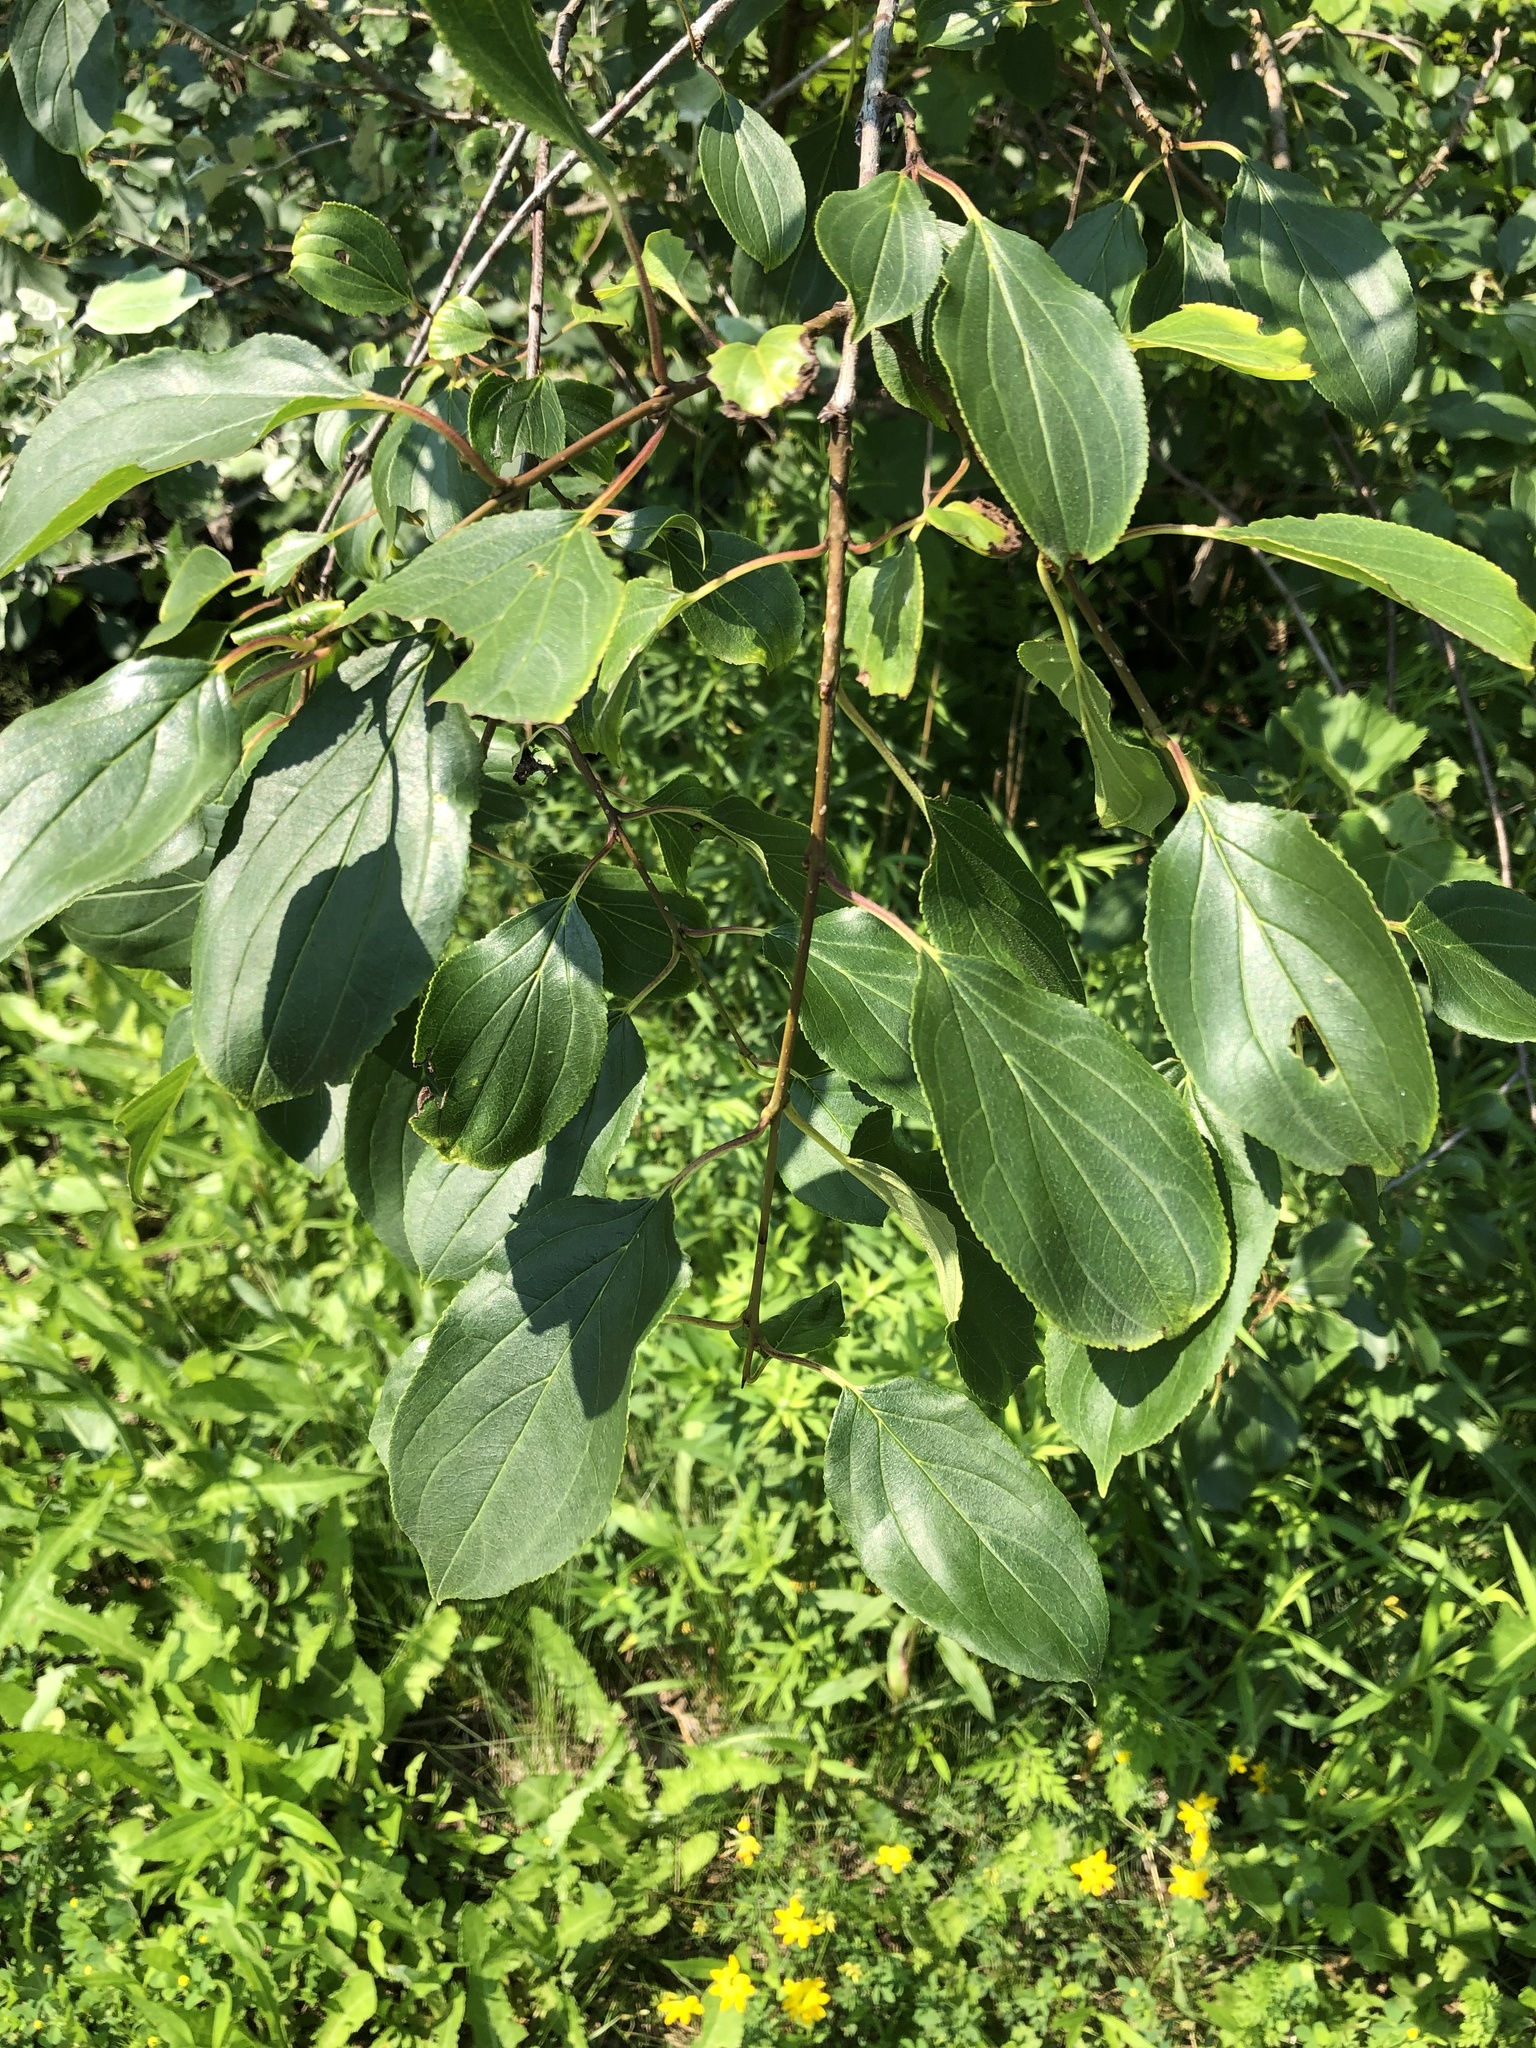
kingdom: Plantae
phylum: Tracheophyta
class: Magnoliopsida
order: Rosales
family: Rhamnaceae
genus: Rhamnus
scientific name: Rhamnus cathartica
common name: Common buckthorn
